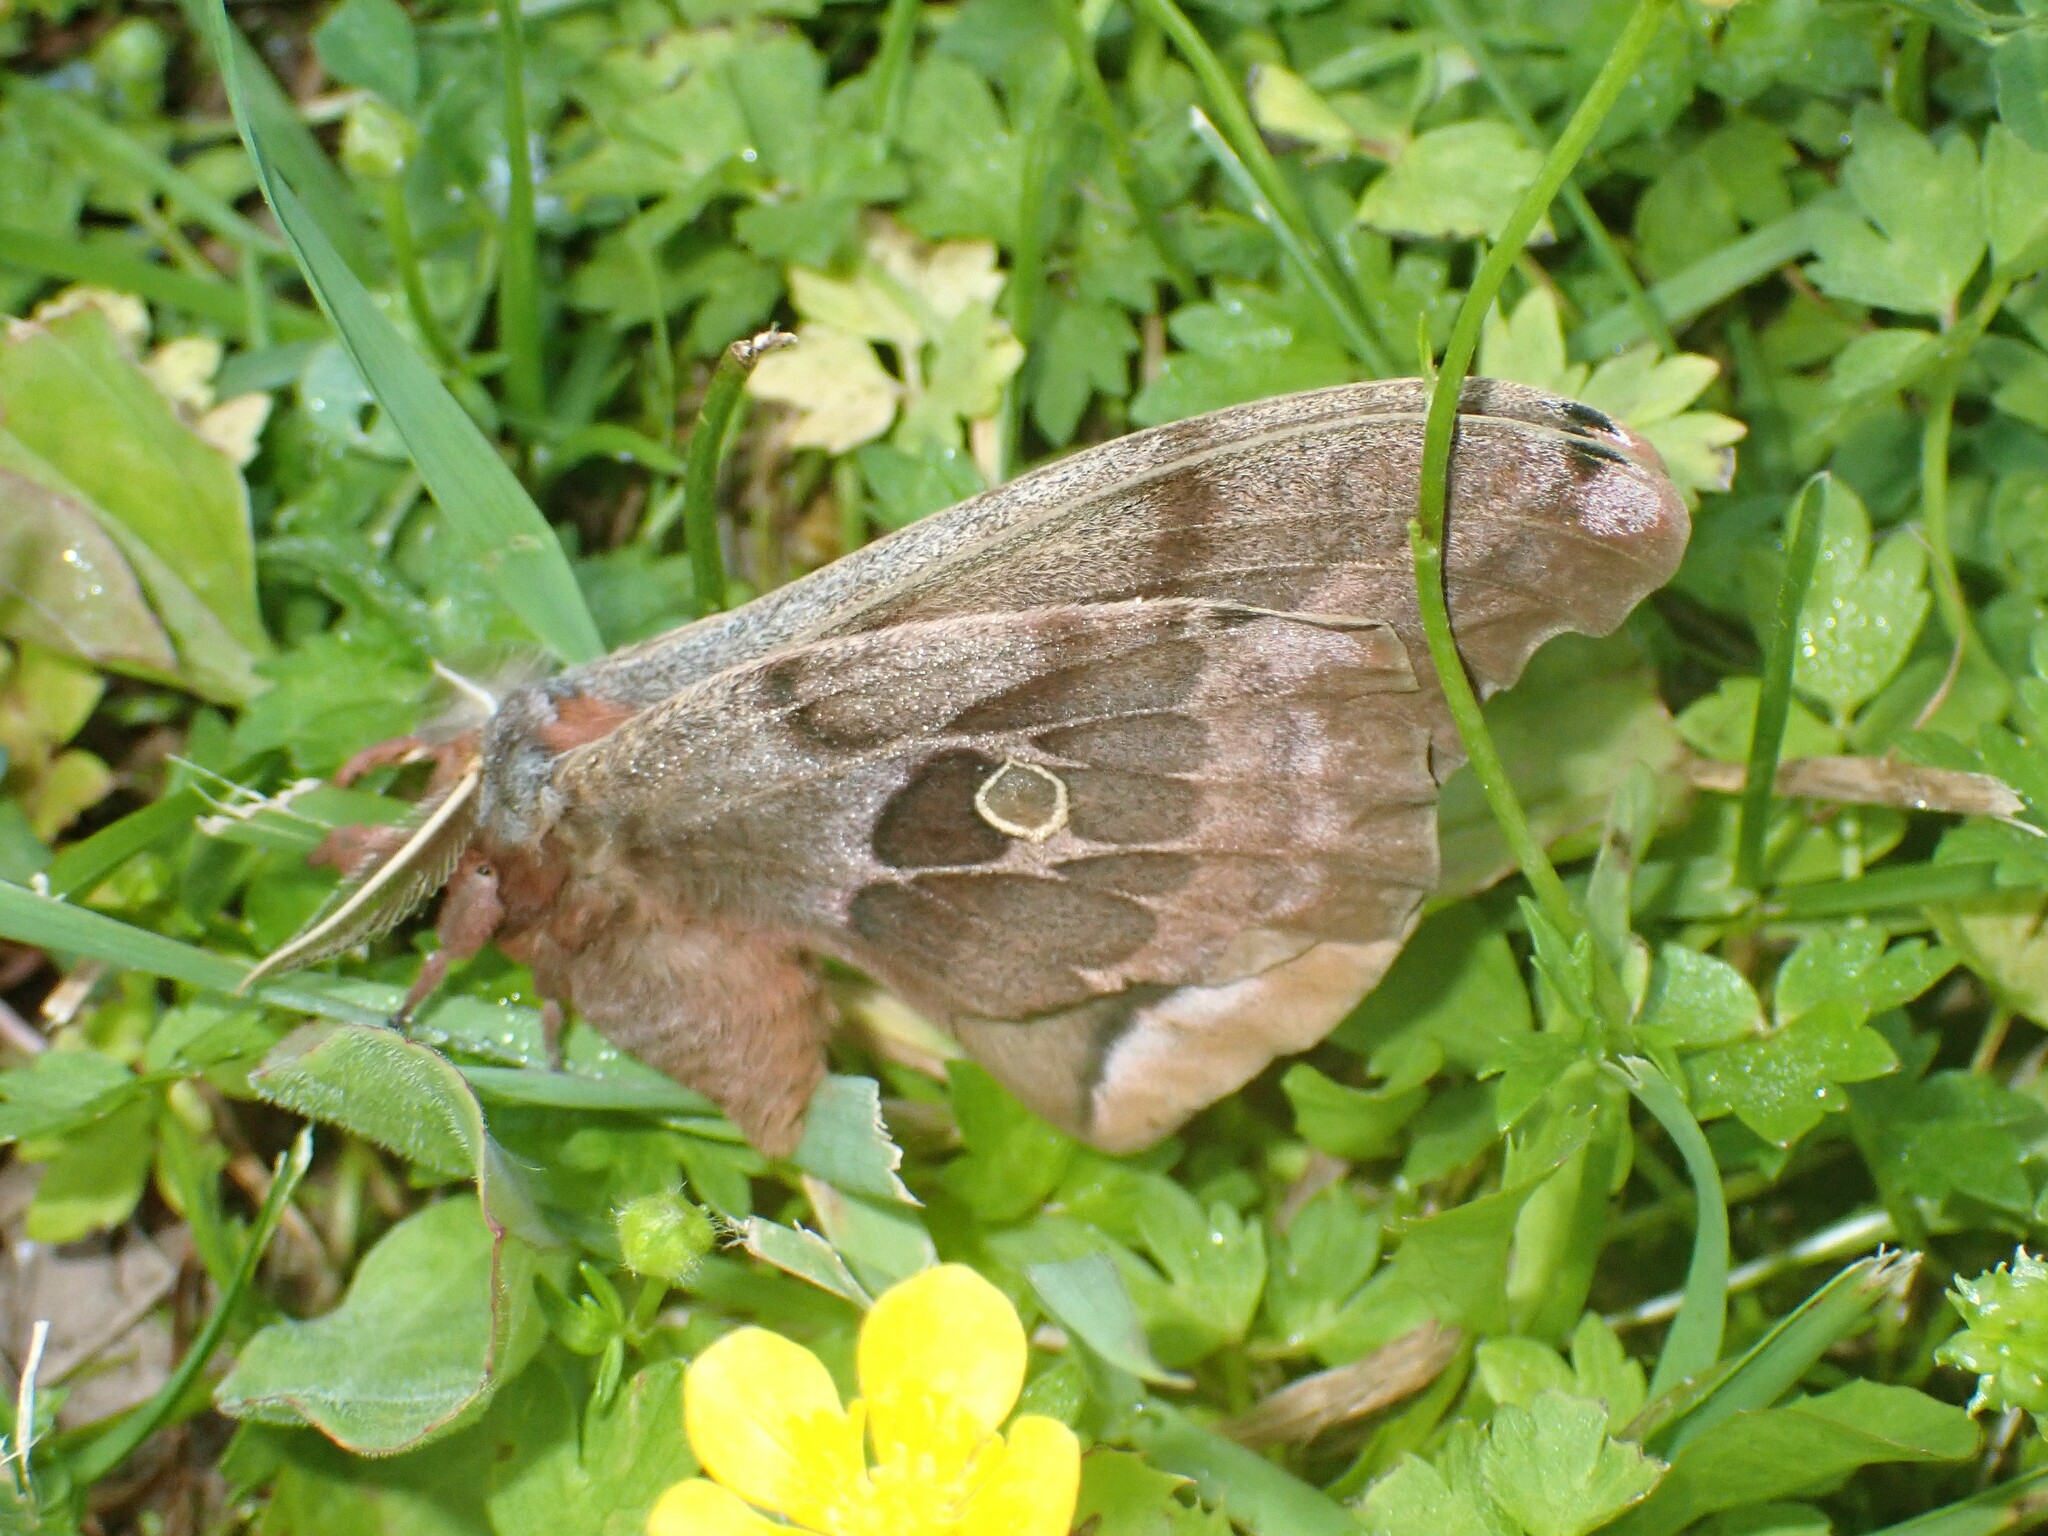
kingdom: Animalia
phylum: Arthropoda
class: Insecta
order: Lepidoptera
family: Saturniidae
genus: Antheraea
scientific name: Antheraea polyphemus
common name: Polyphemus moth
